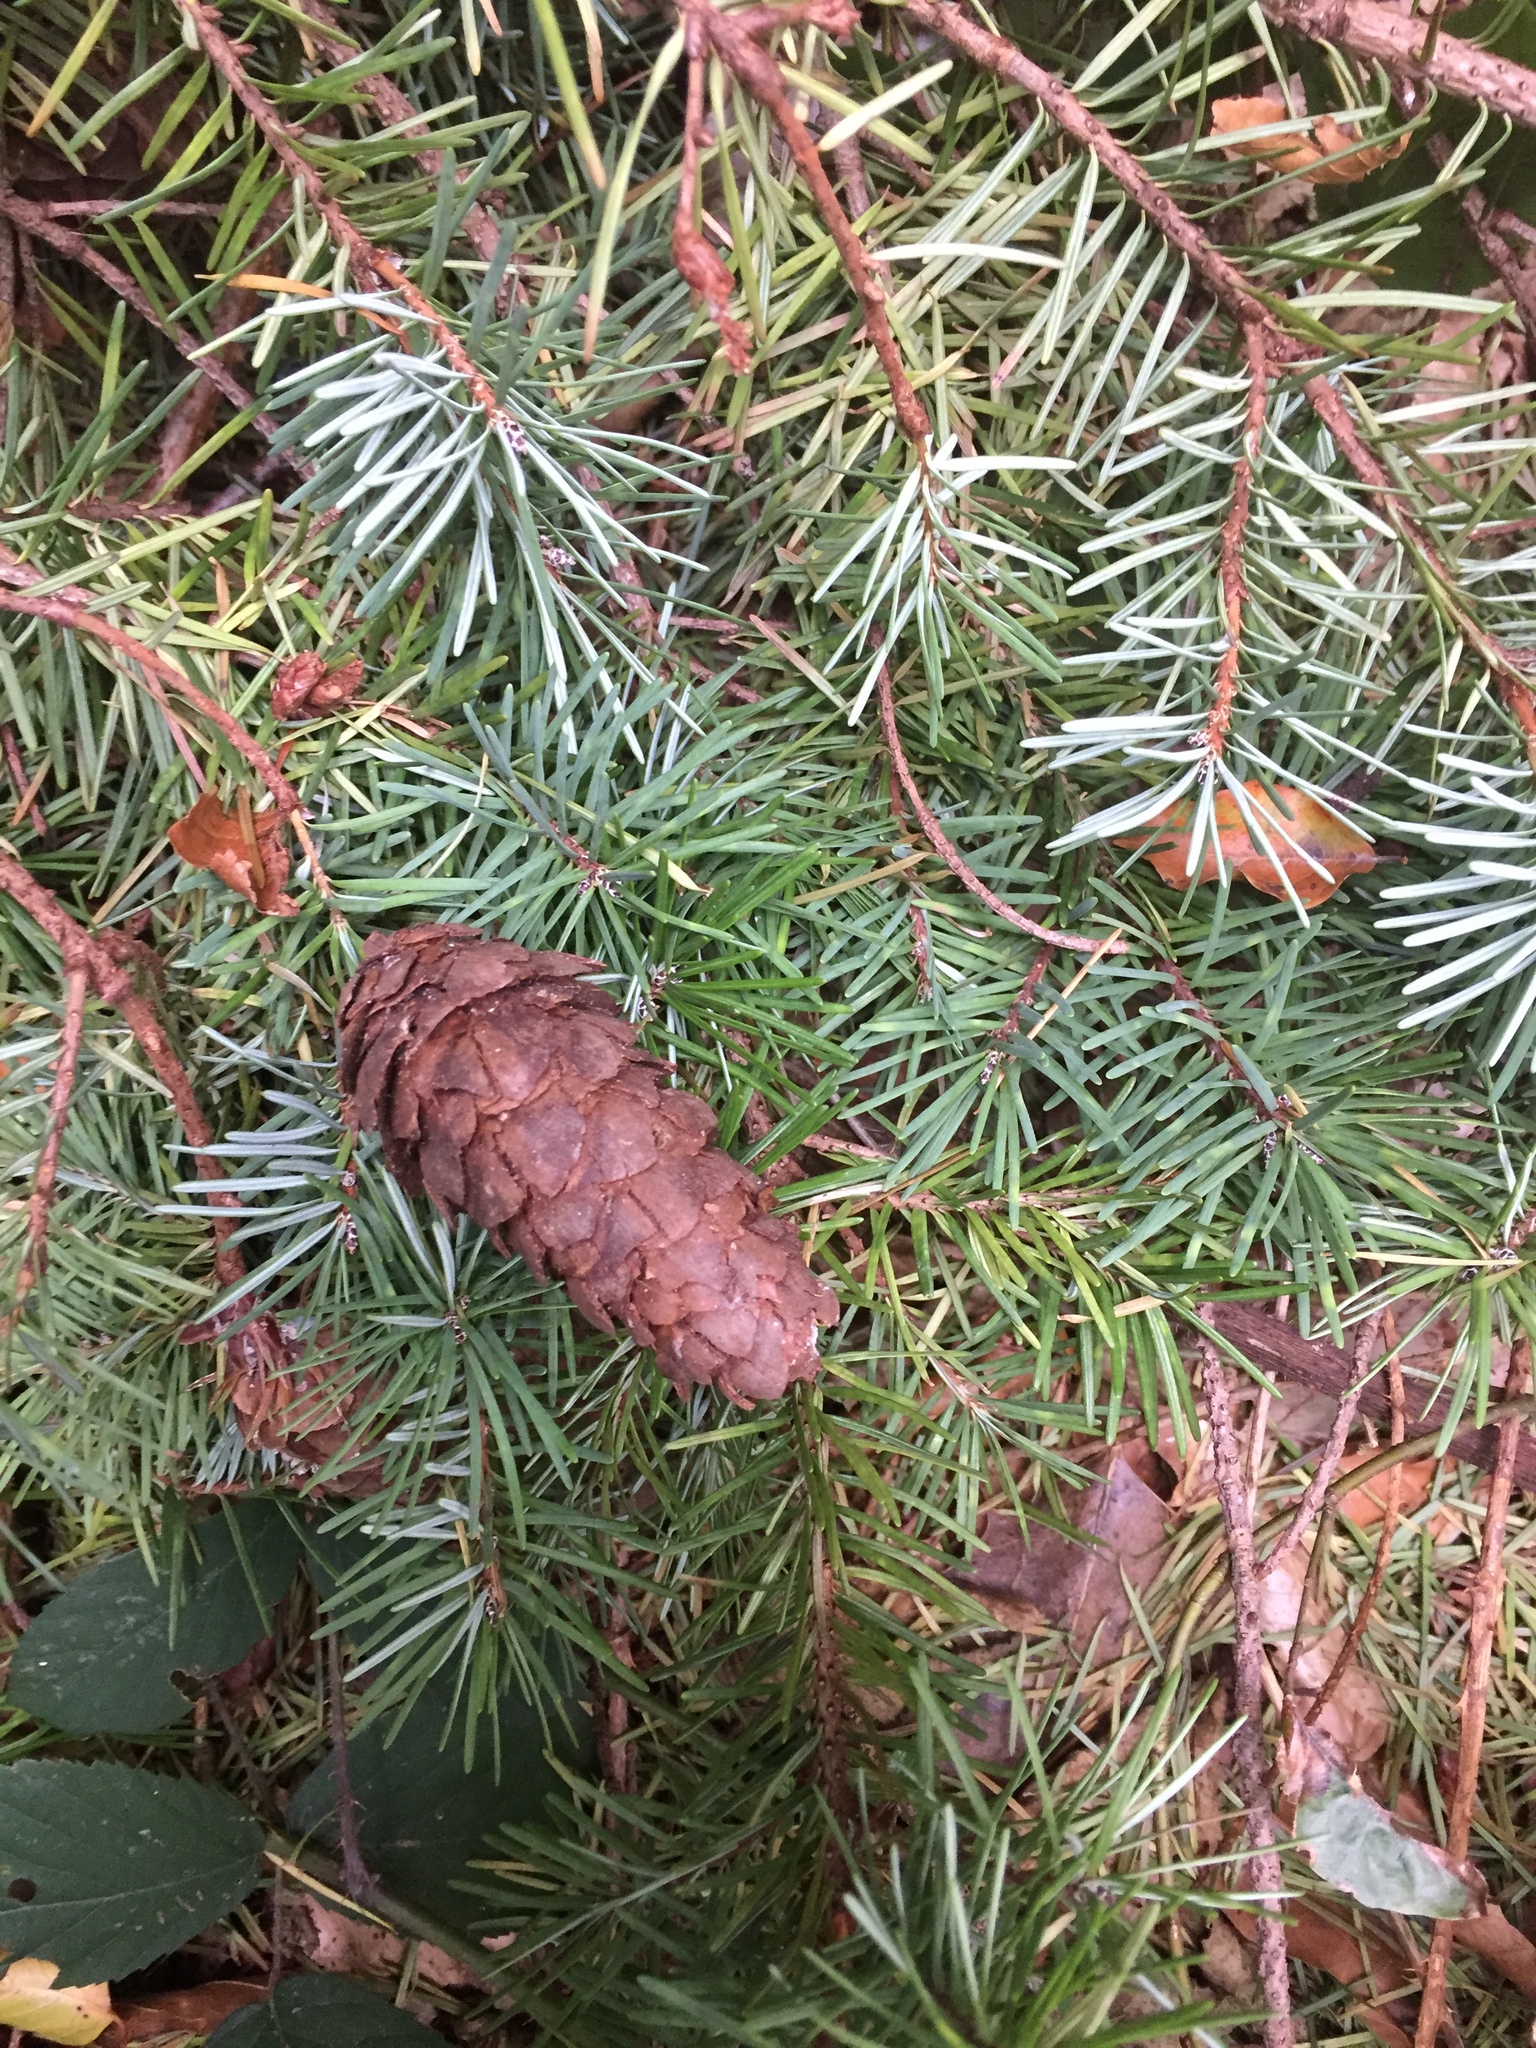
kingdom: Plantae
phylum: Tracheophyta
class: Pinopsida
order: Pinales
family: Pinaceae
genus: Pseudotsuga
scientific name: Pseudotsuga menziesii
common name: Douglas fir
